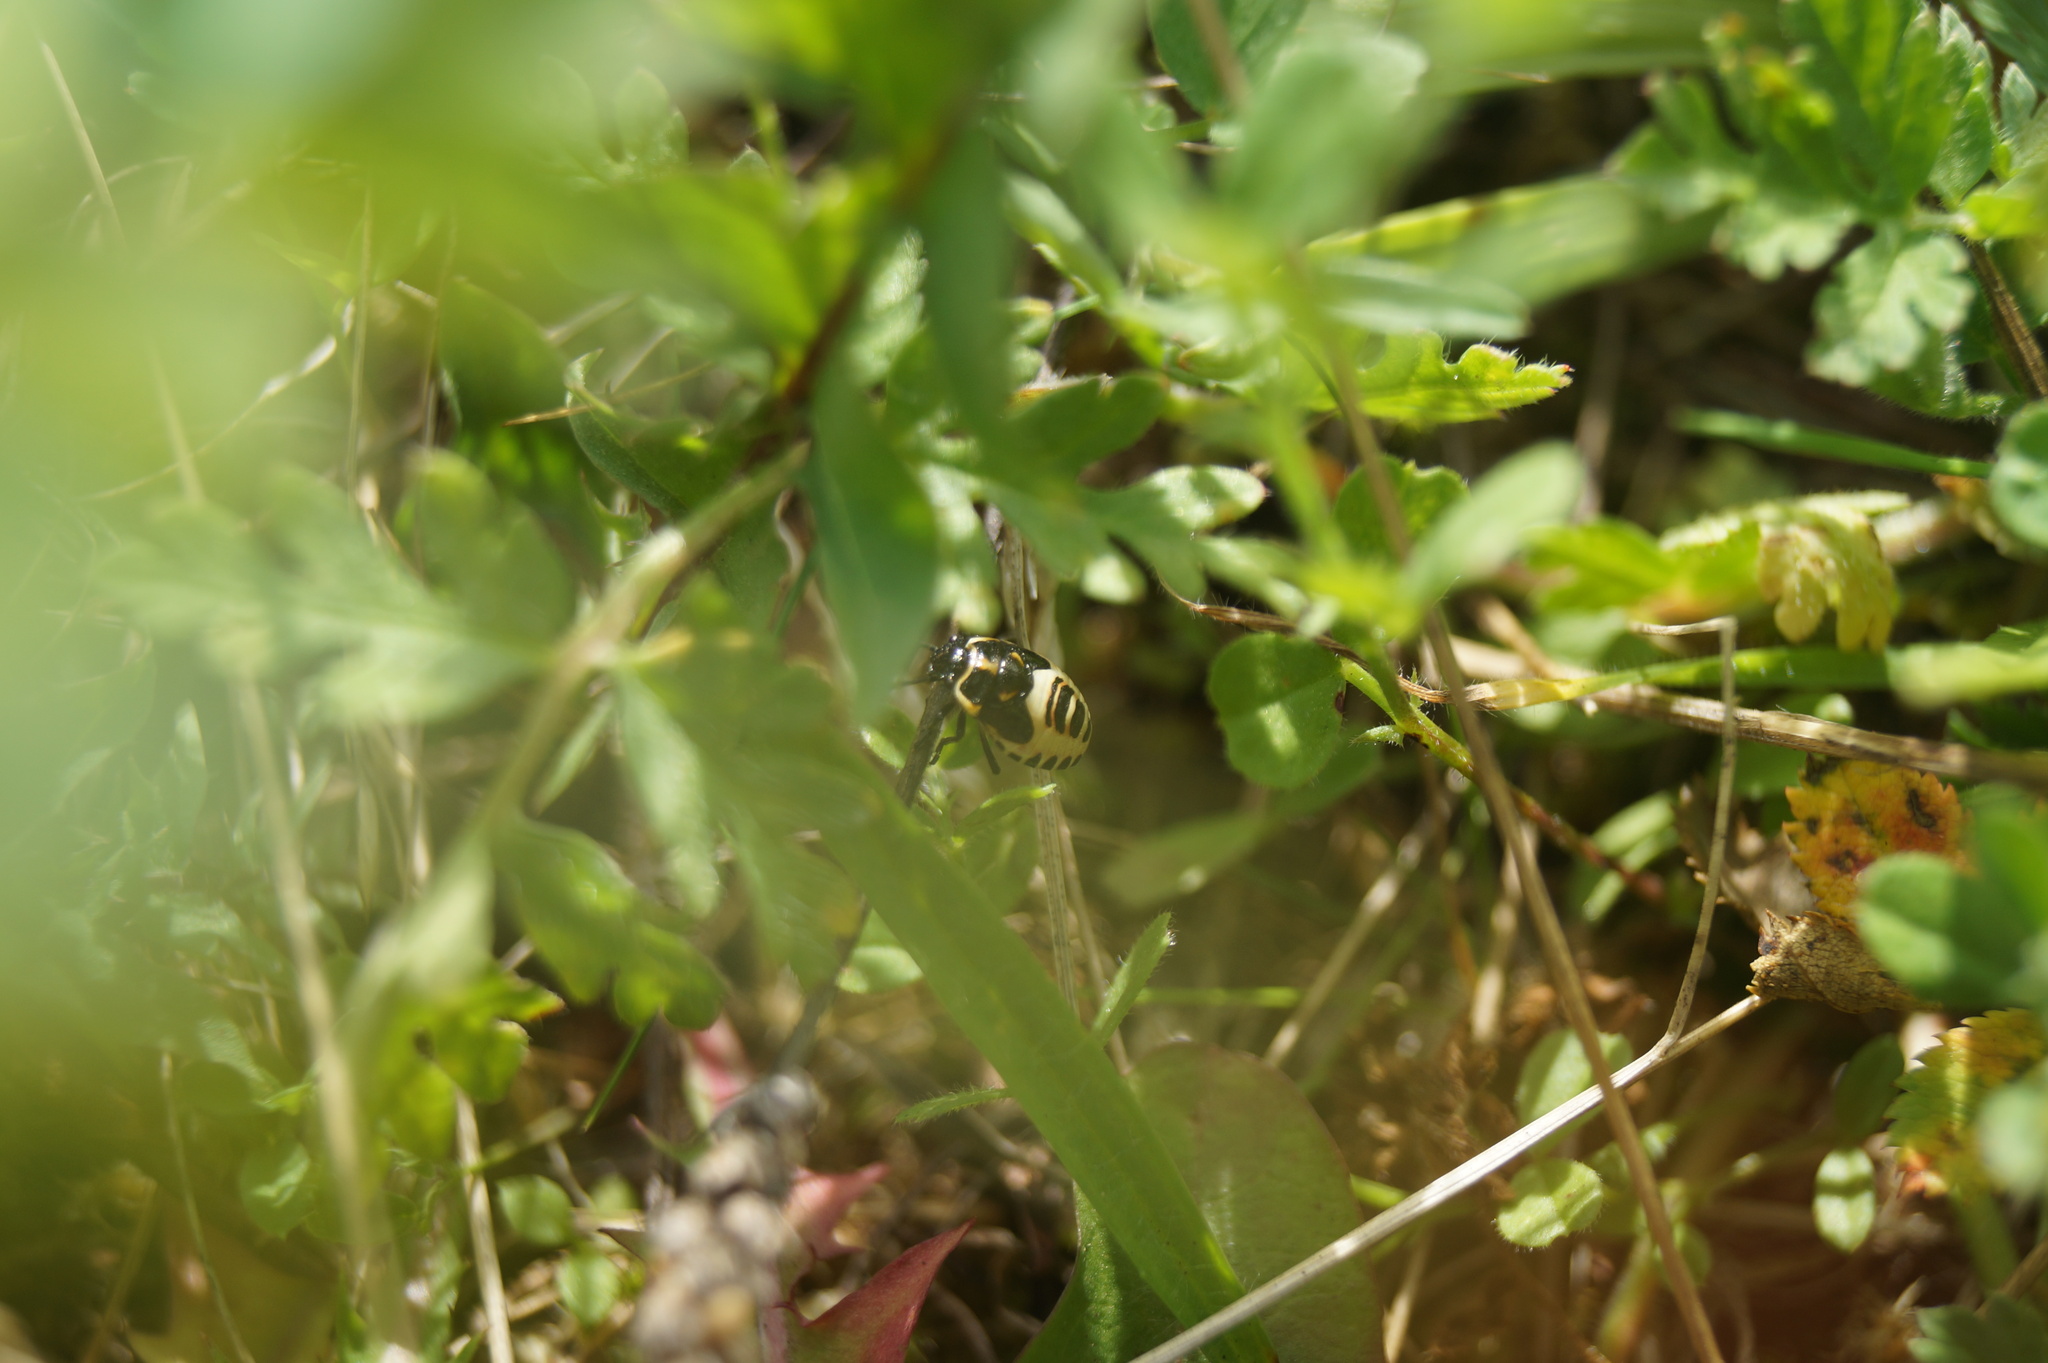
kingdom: Animalia
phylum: Arthropoda
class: Insecta
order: Hemiptera
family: Pentatomidae
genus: Eurydema
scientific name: Eurydema oleracea
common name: Cabbage bug
